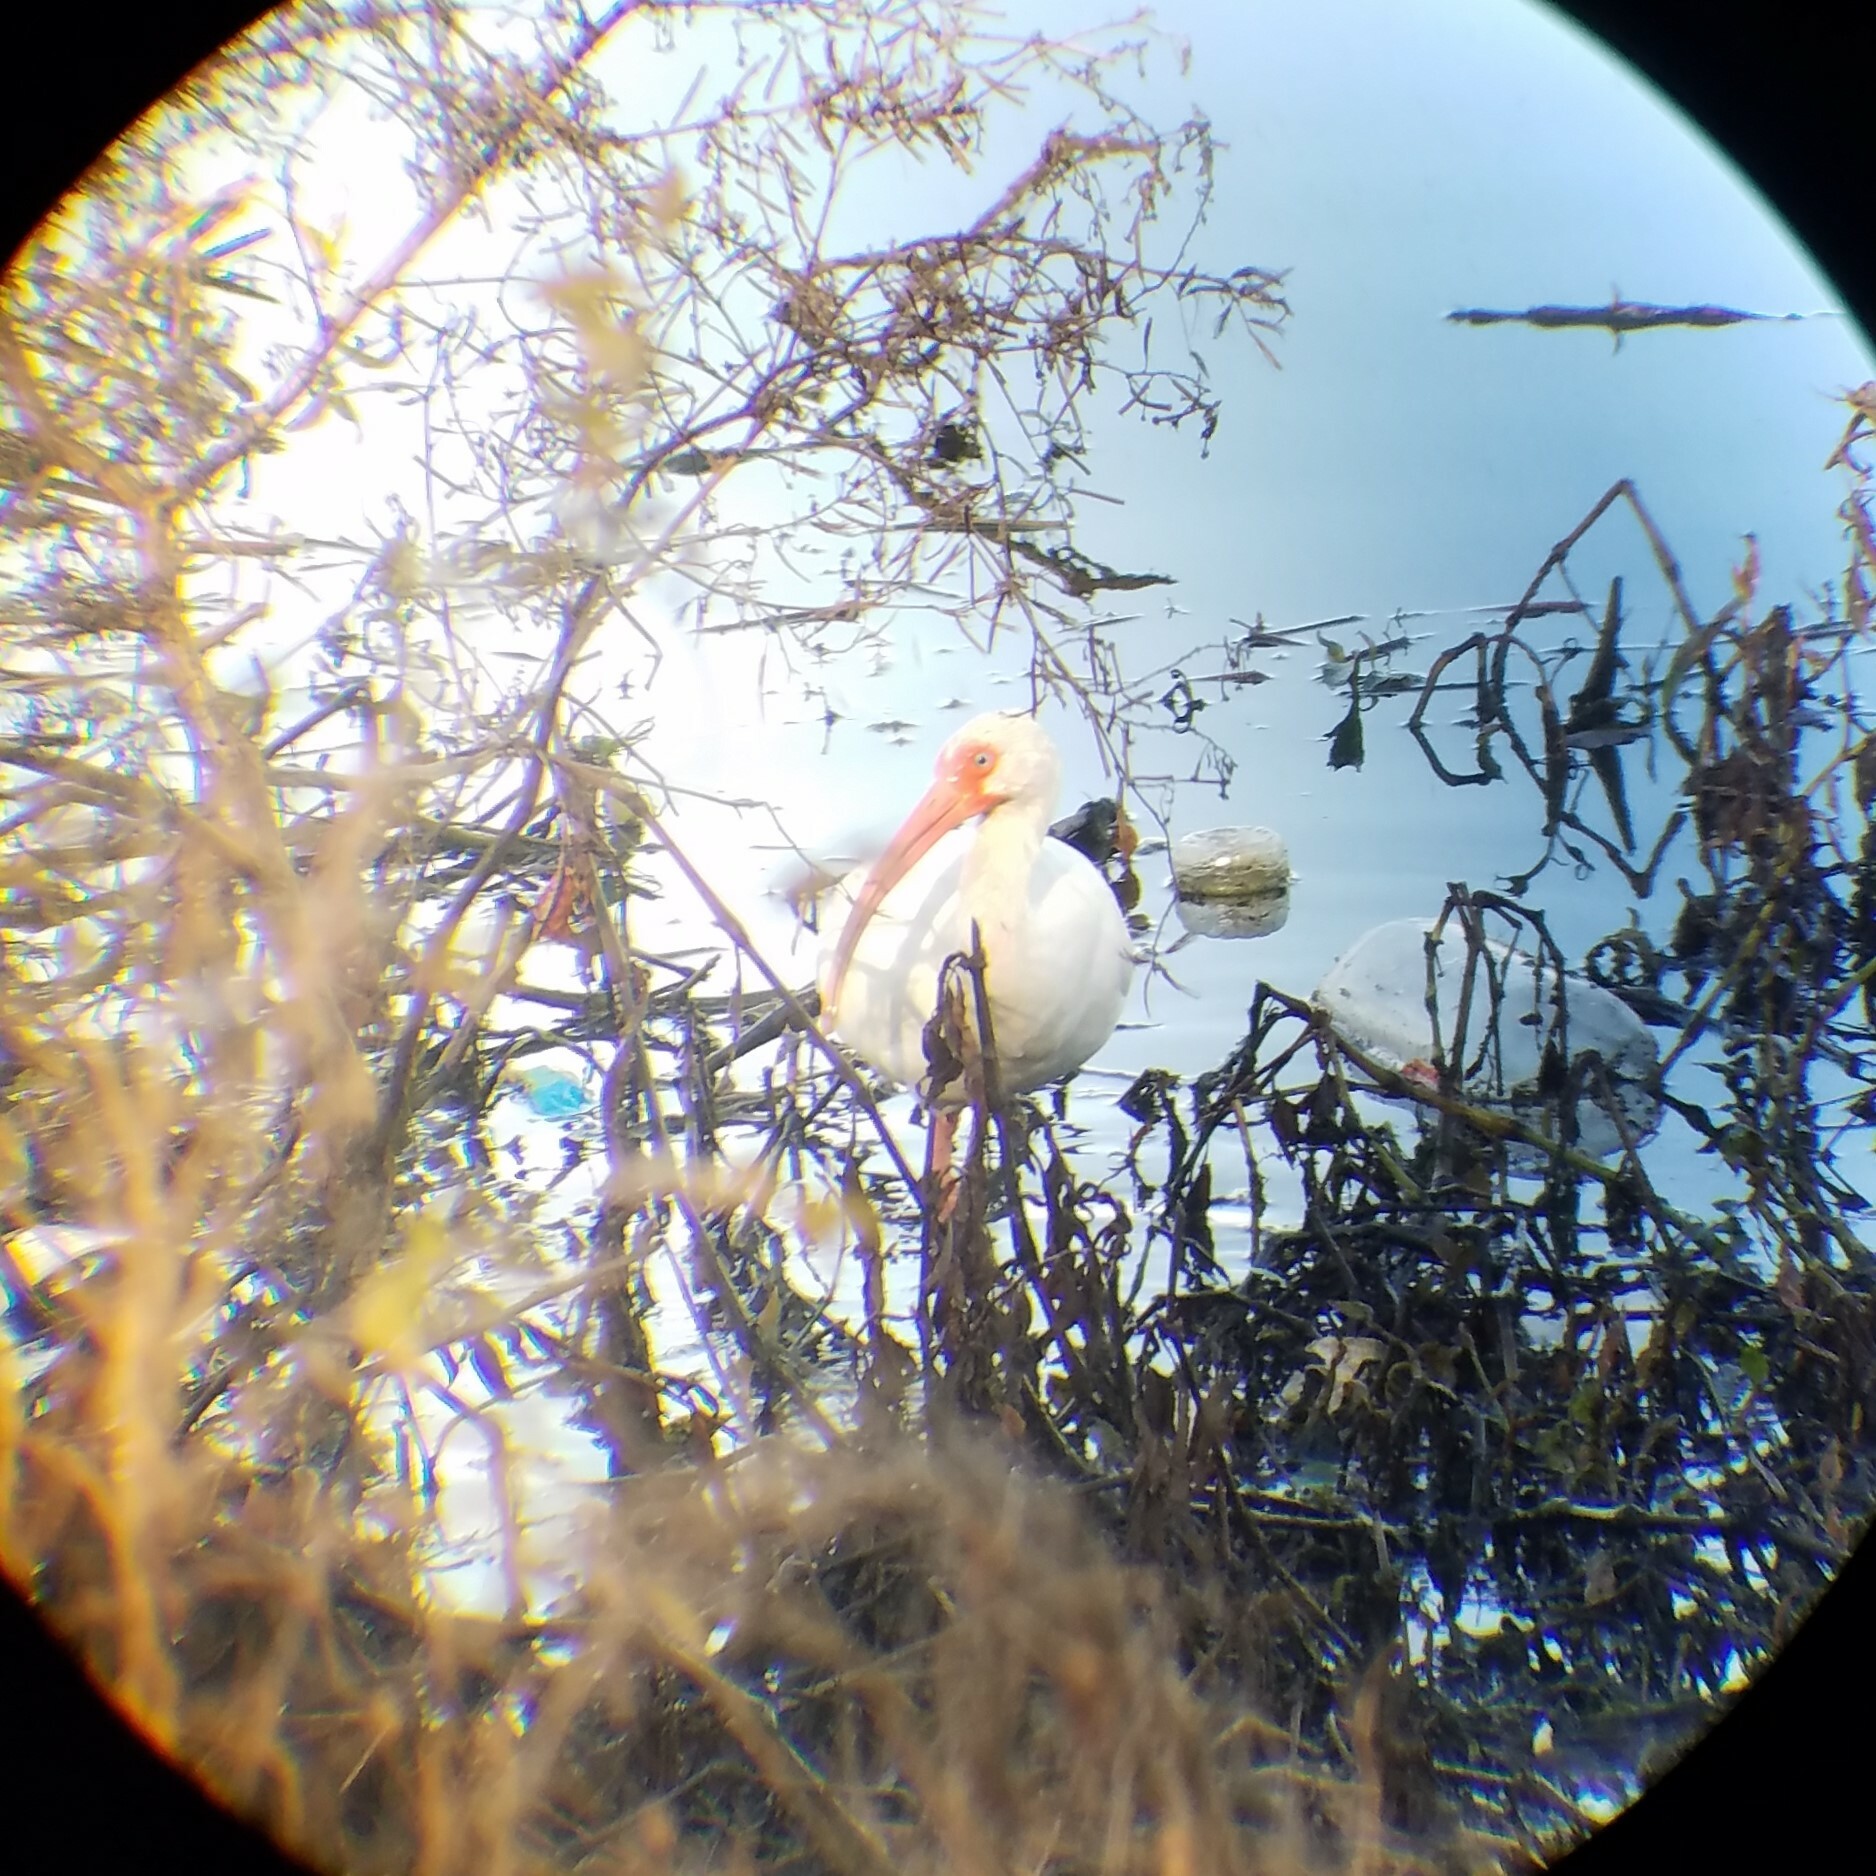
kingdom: Animalia
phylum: Chordata
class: Aves
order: Pelecaniformes
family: Threskiornithidae
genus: Eudocimus
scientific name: Eudocimus albus
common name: White ibis
